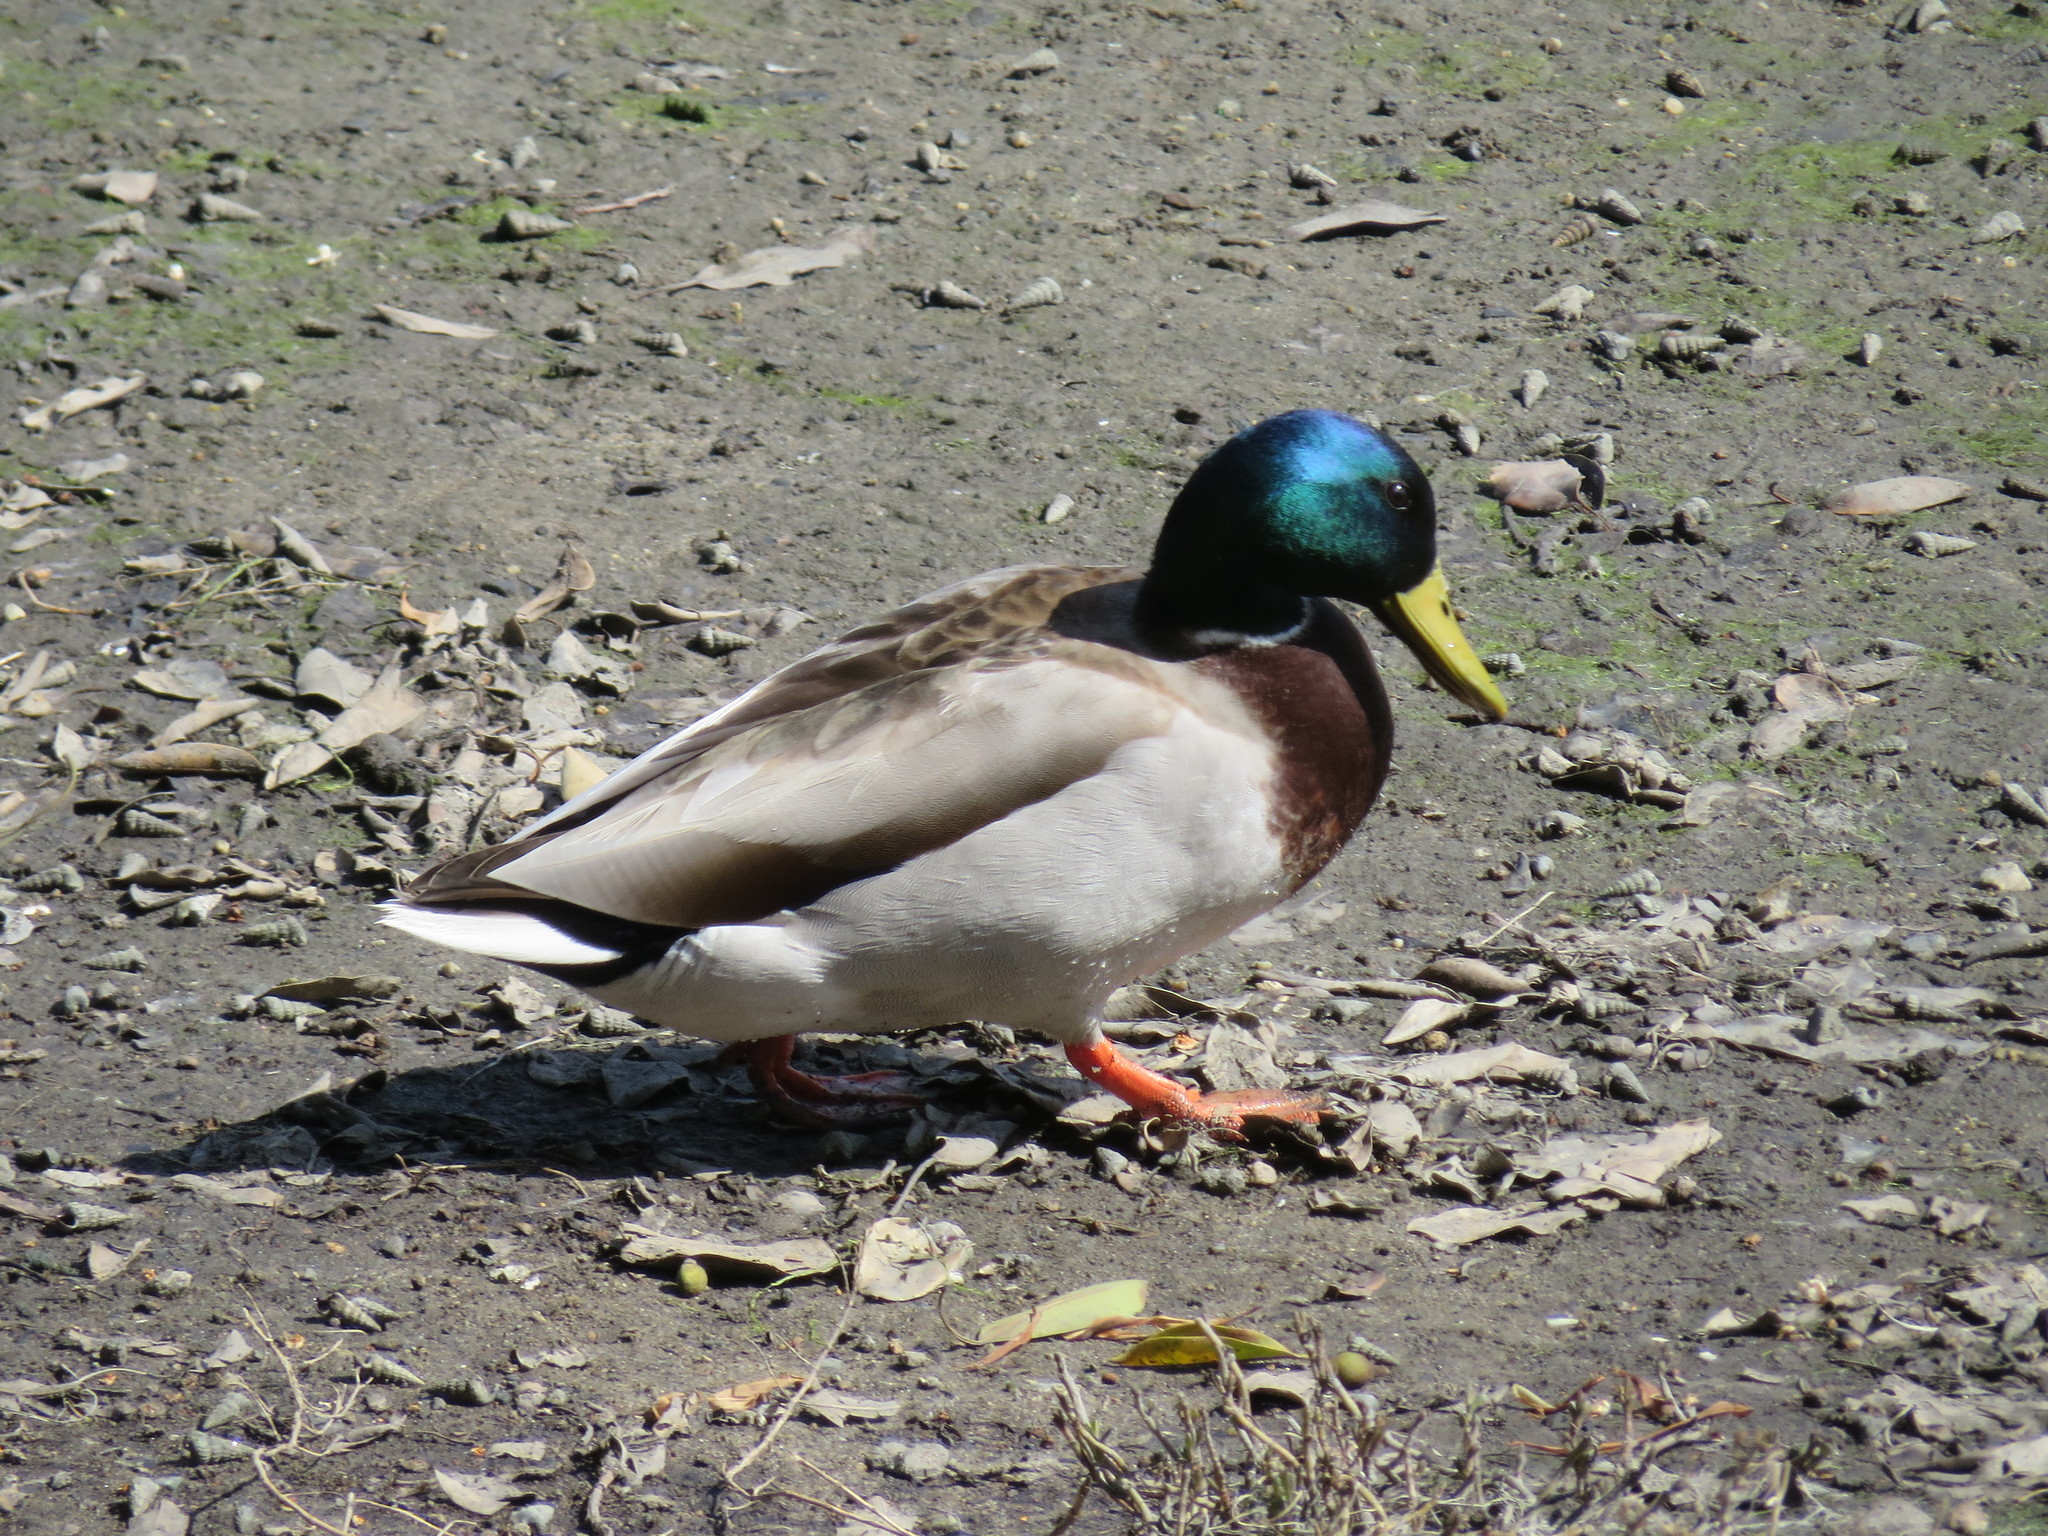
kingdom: Animalia
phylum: Chordata
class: Aves
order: Anseriformes
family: Anatidae
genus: Anas
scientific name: Anas platyrhynchos
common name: Mallard
